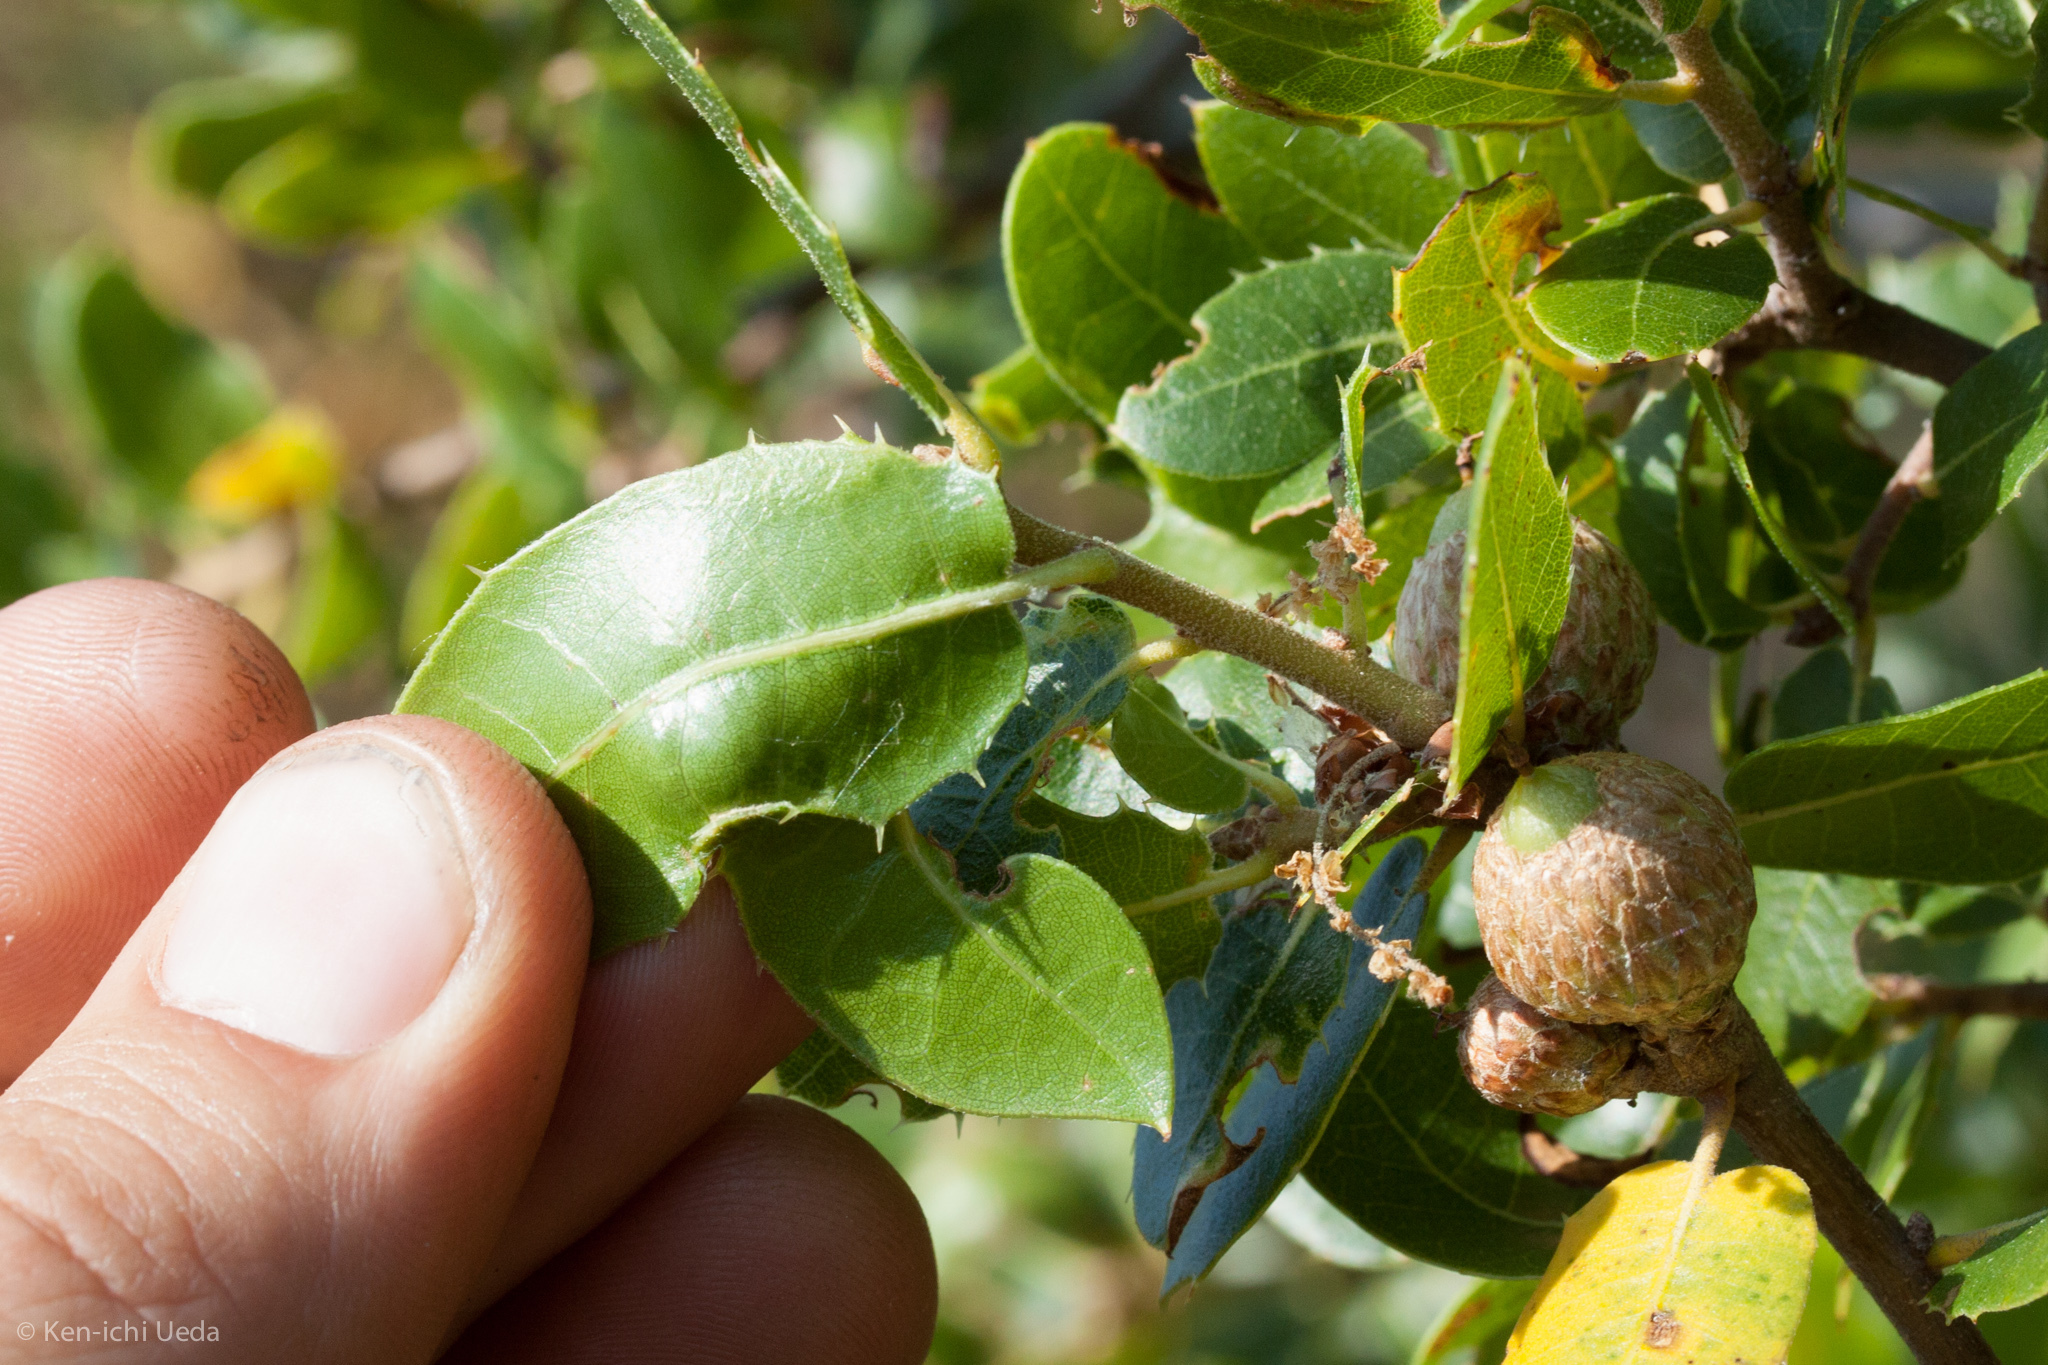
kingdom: Plantae
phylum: Tracheophyta
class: Magnoliopsida
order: Fagales
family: Fagaceae
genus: Quercus
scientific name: Quercus wislizeni
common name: Interior live oak
